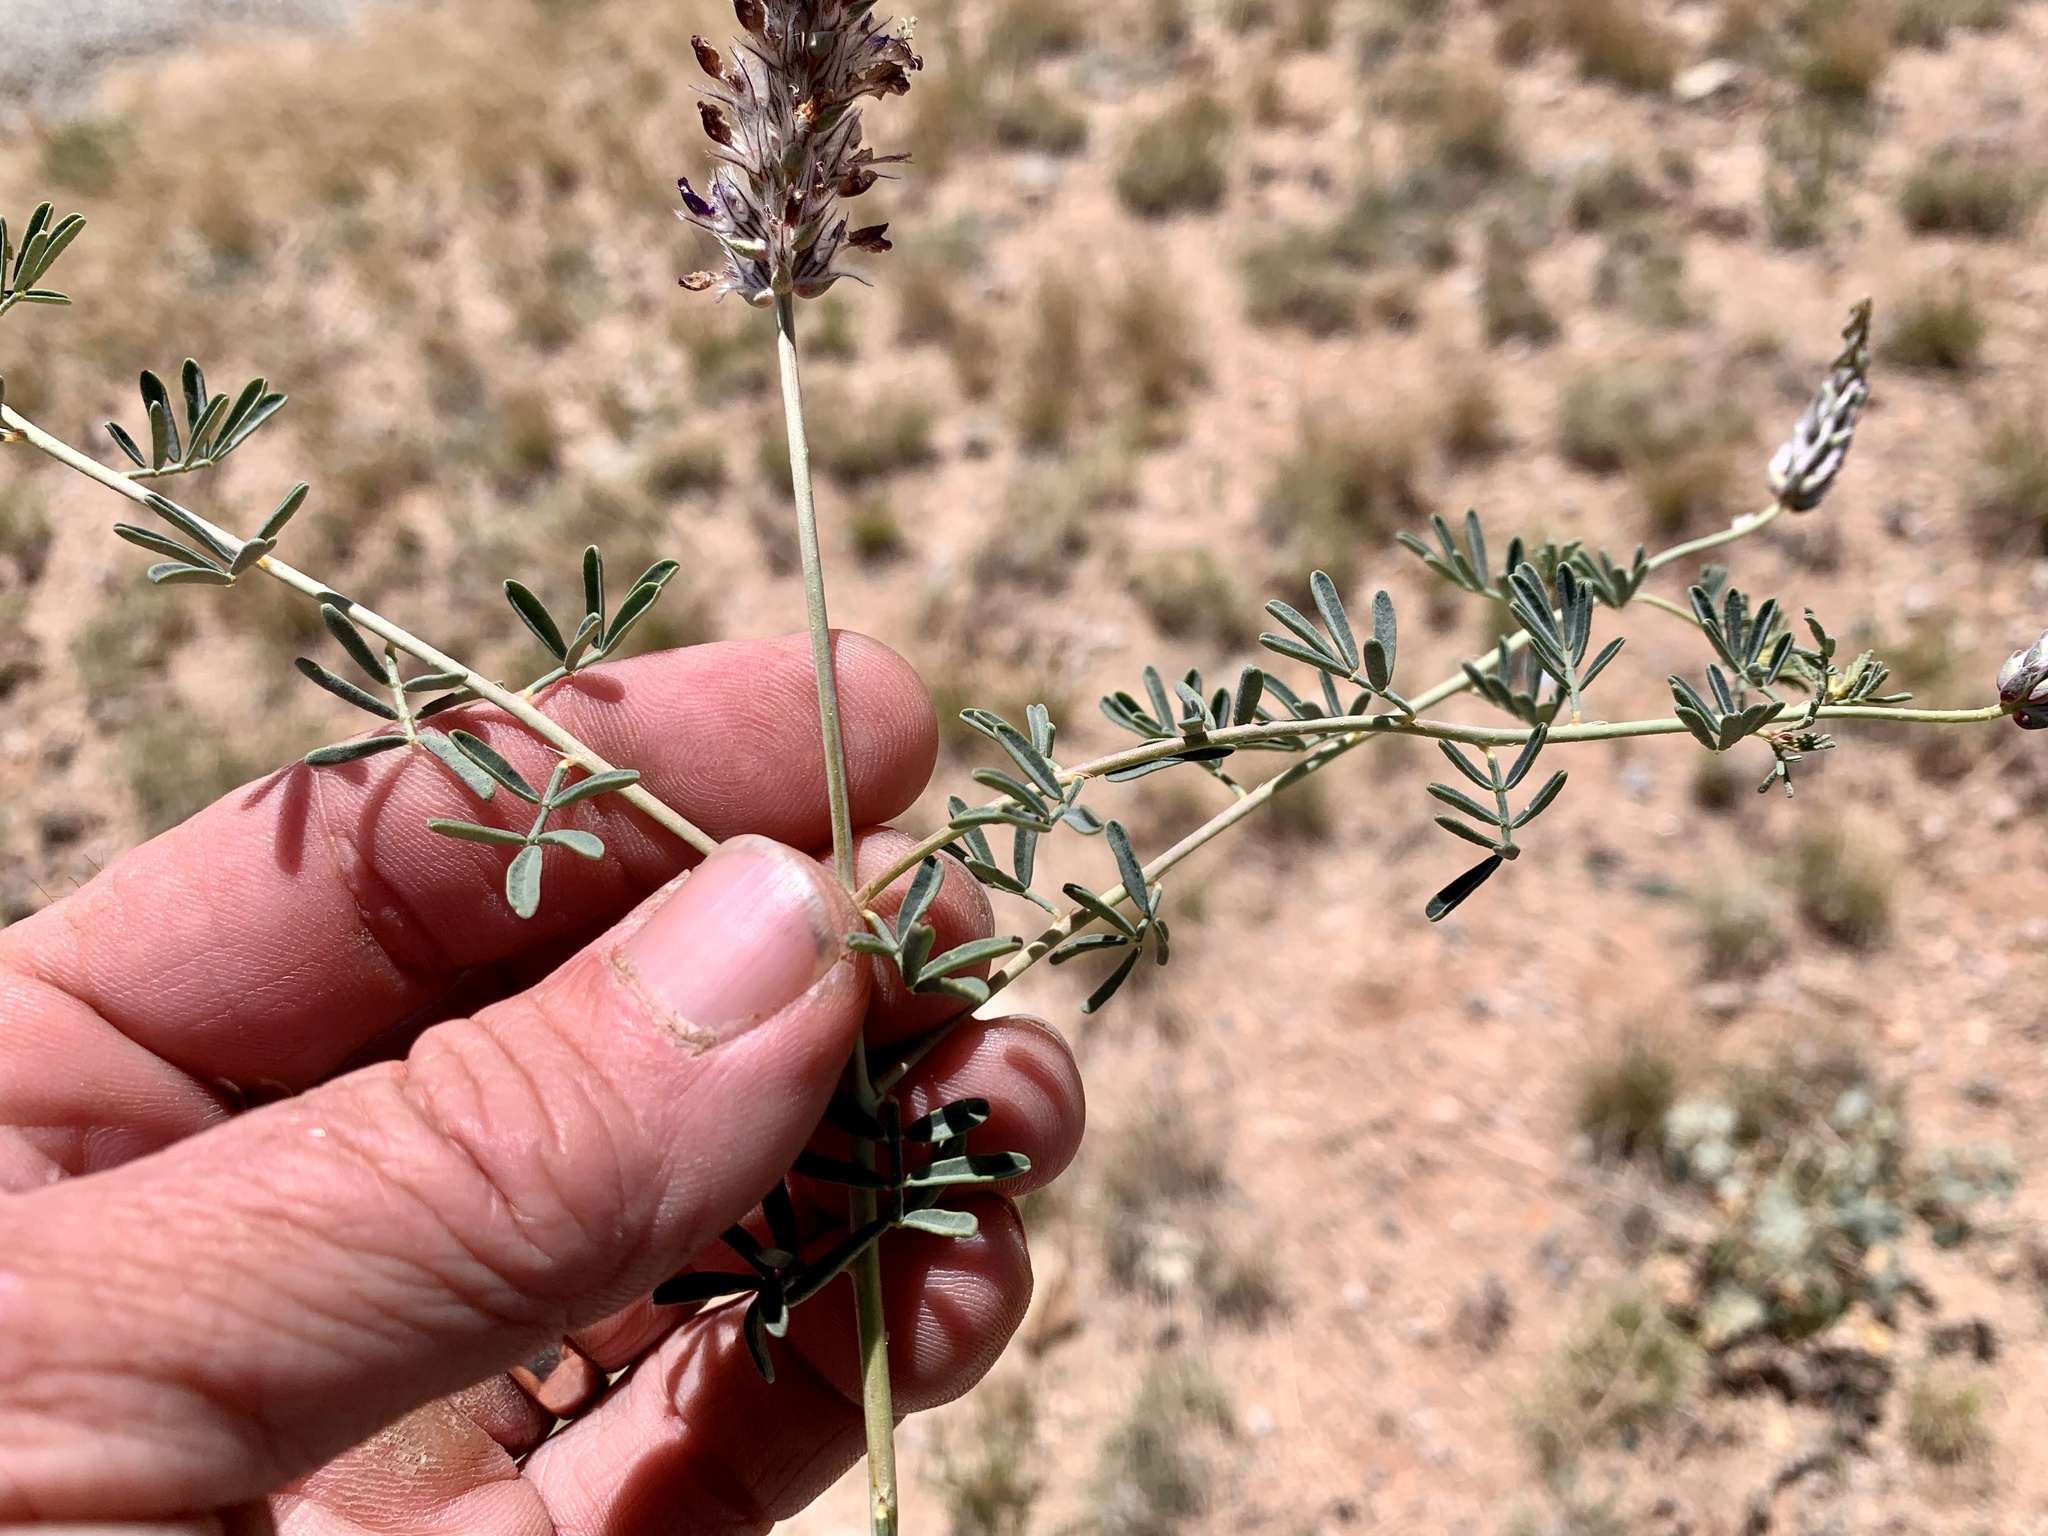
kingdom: Plantae
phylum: Tracheophyta
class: Magnoliopsida
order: Fabales
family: Fabaceae
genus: Dalea
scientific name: Dalea pogonathera
